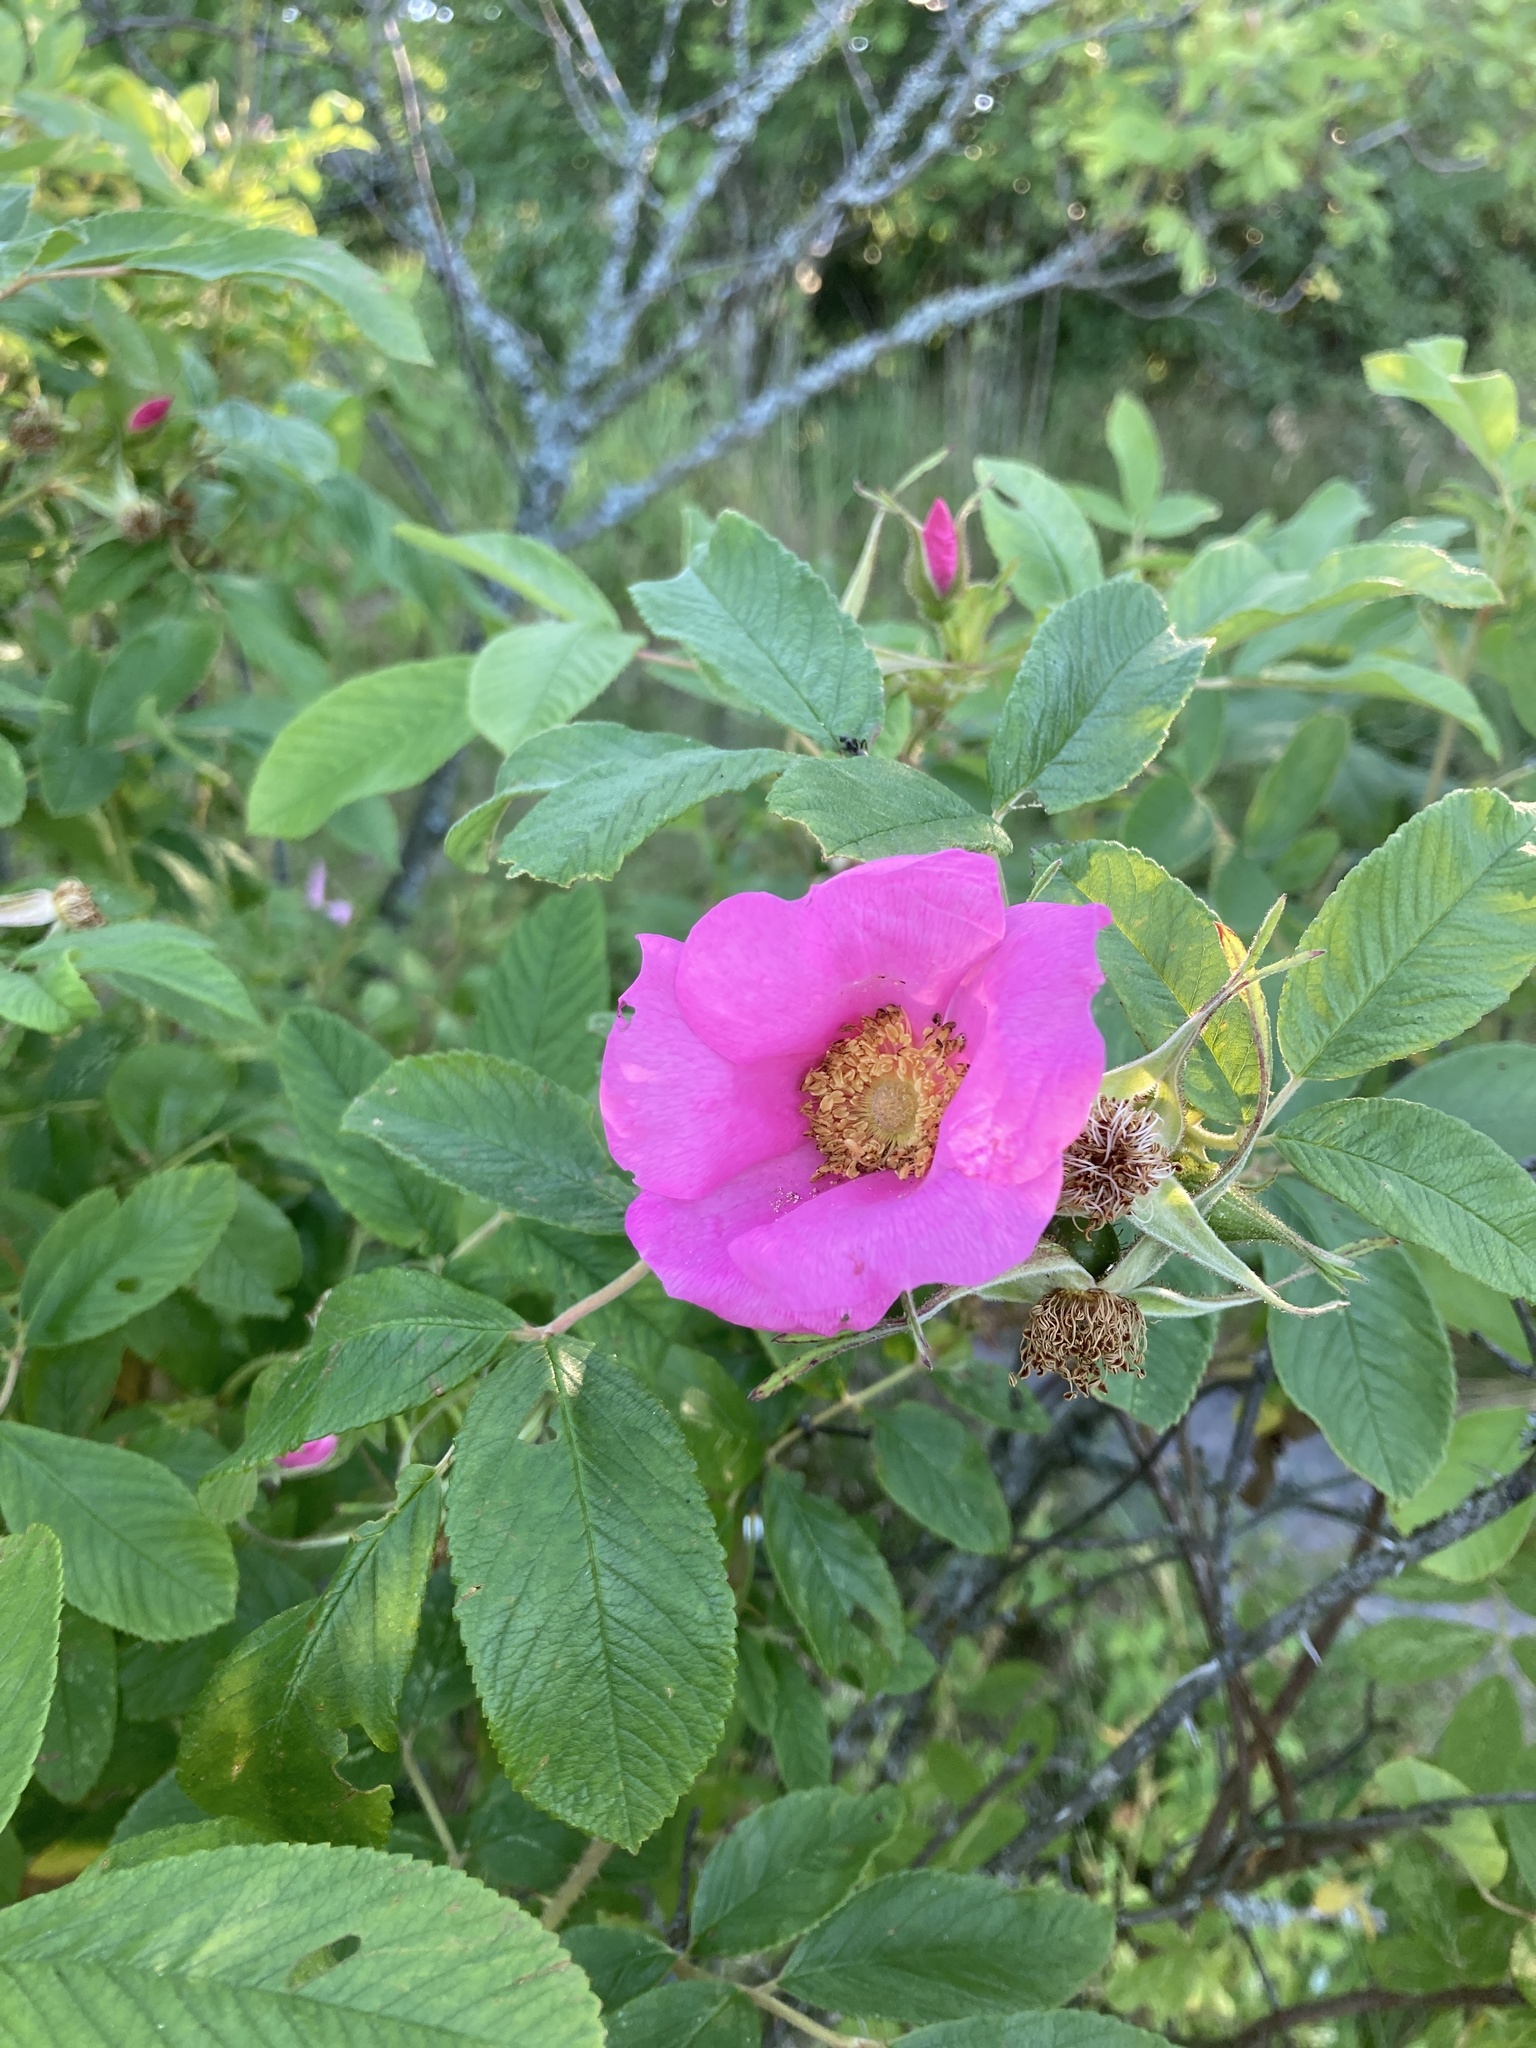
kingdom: Plantae
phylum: Tracheophyta
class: Magnoliopsida
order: Rosales
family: Rosaceae
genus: Rosa
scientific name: Rosa rugosa
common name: Japanese rose
